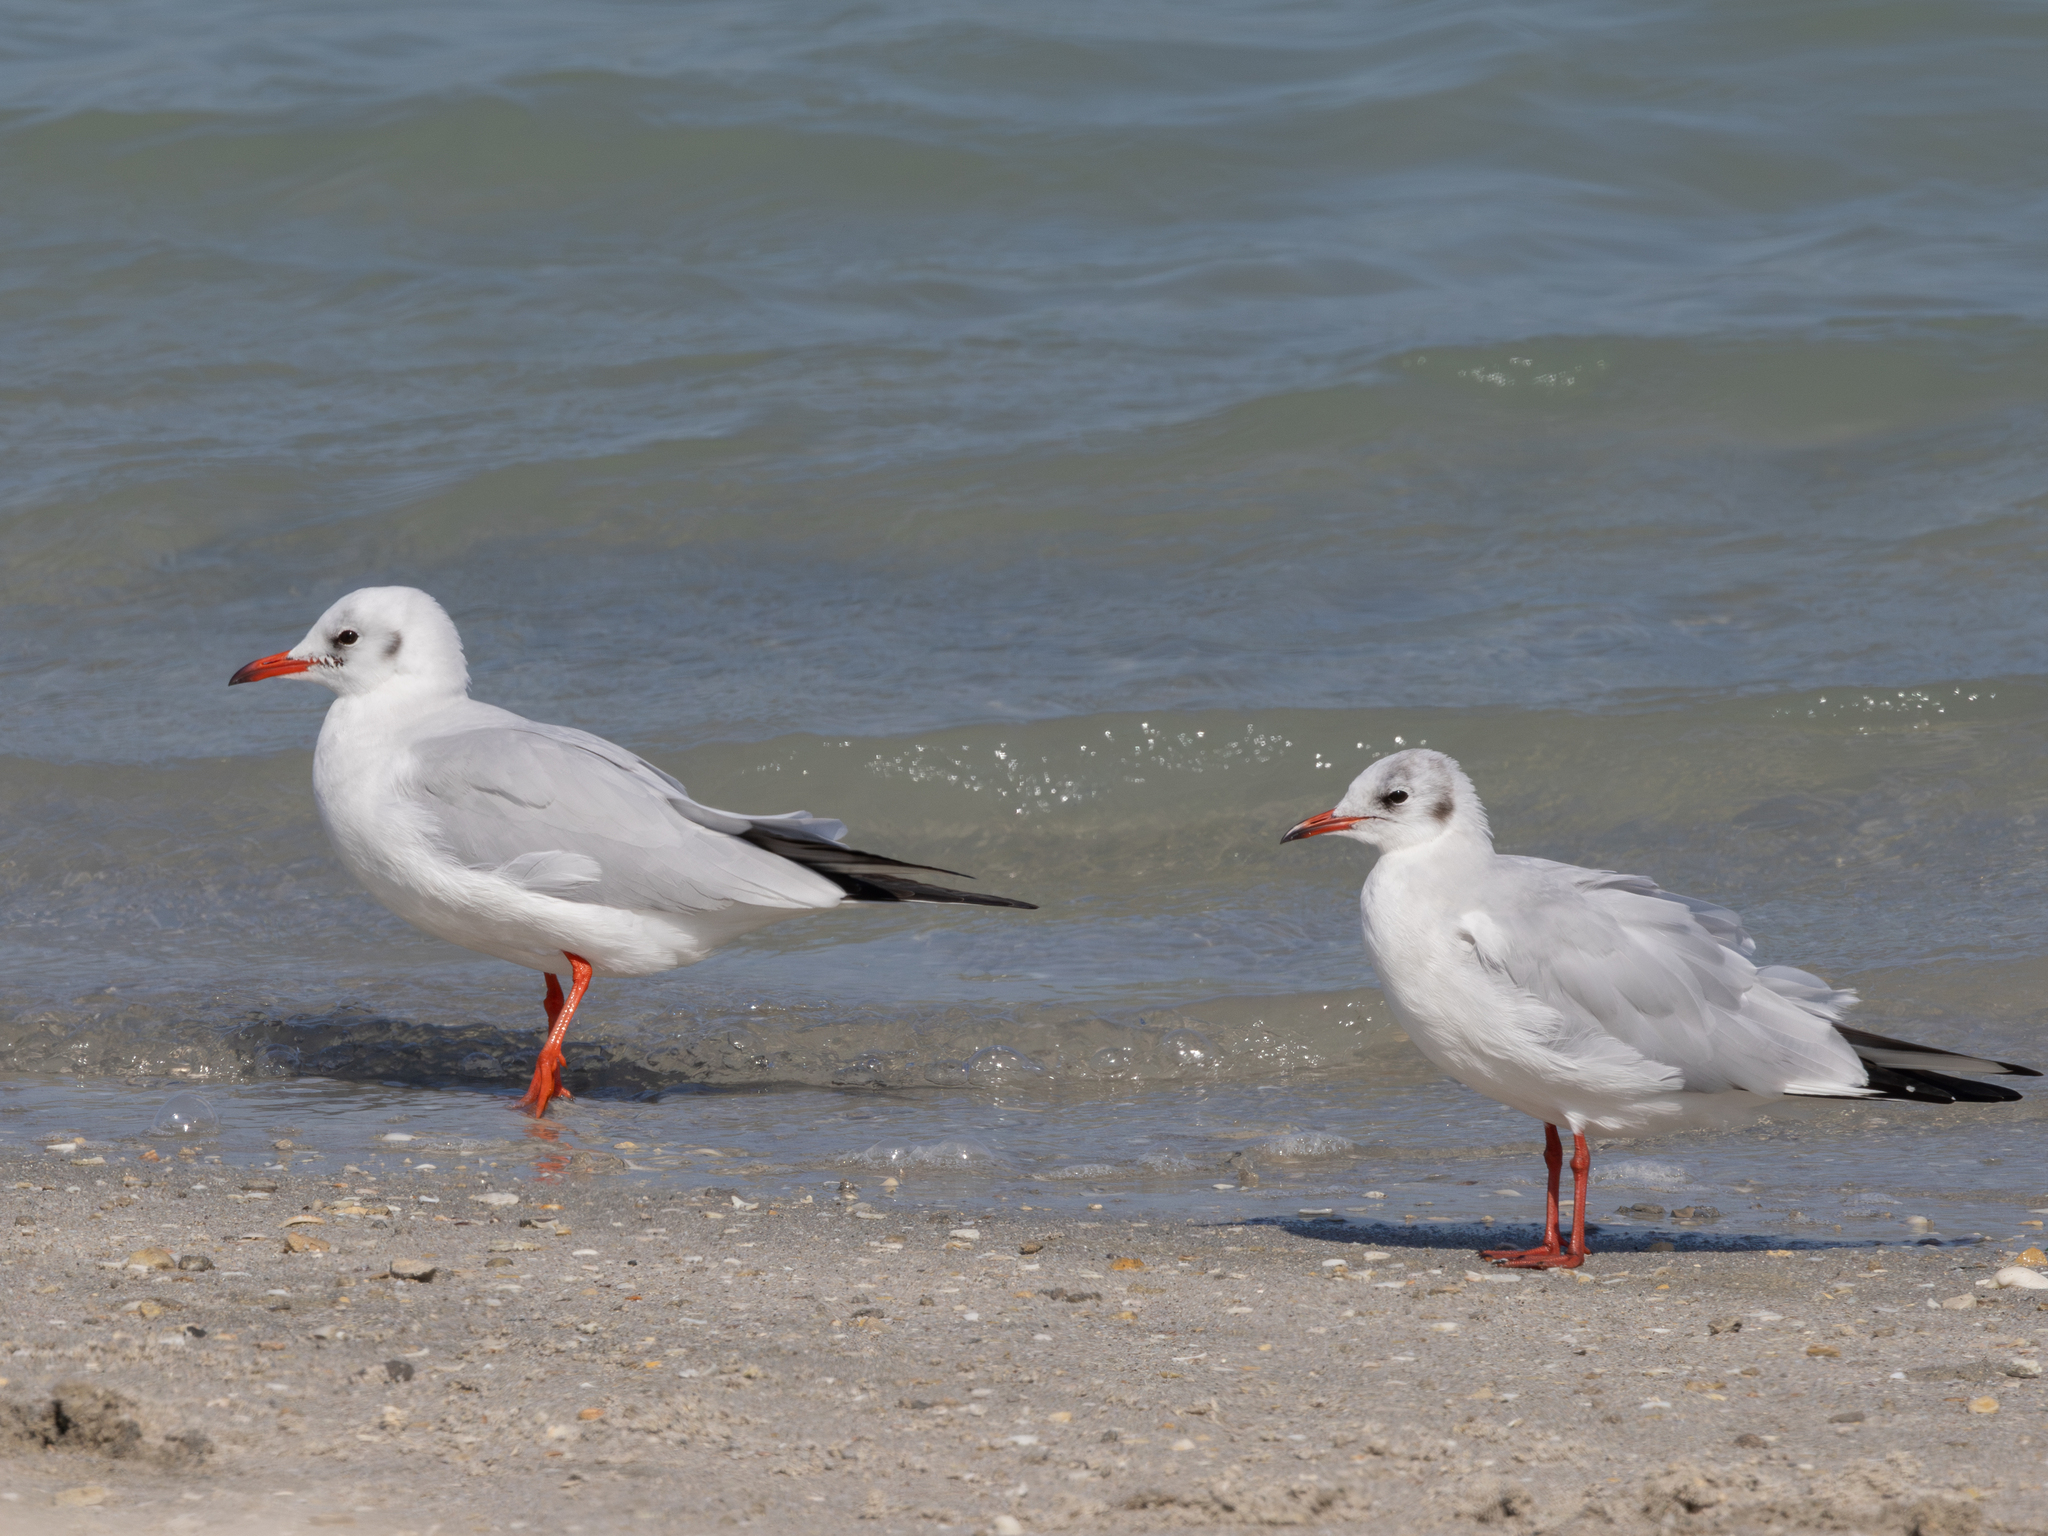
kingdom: Animalia
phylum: Chordata
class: Aves
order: Charadriiformes
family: Laridae
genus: Chroicocephalus
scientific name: Chroicocephalus ridibundus
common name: Black-headed gull
